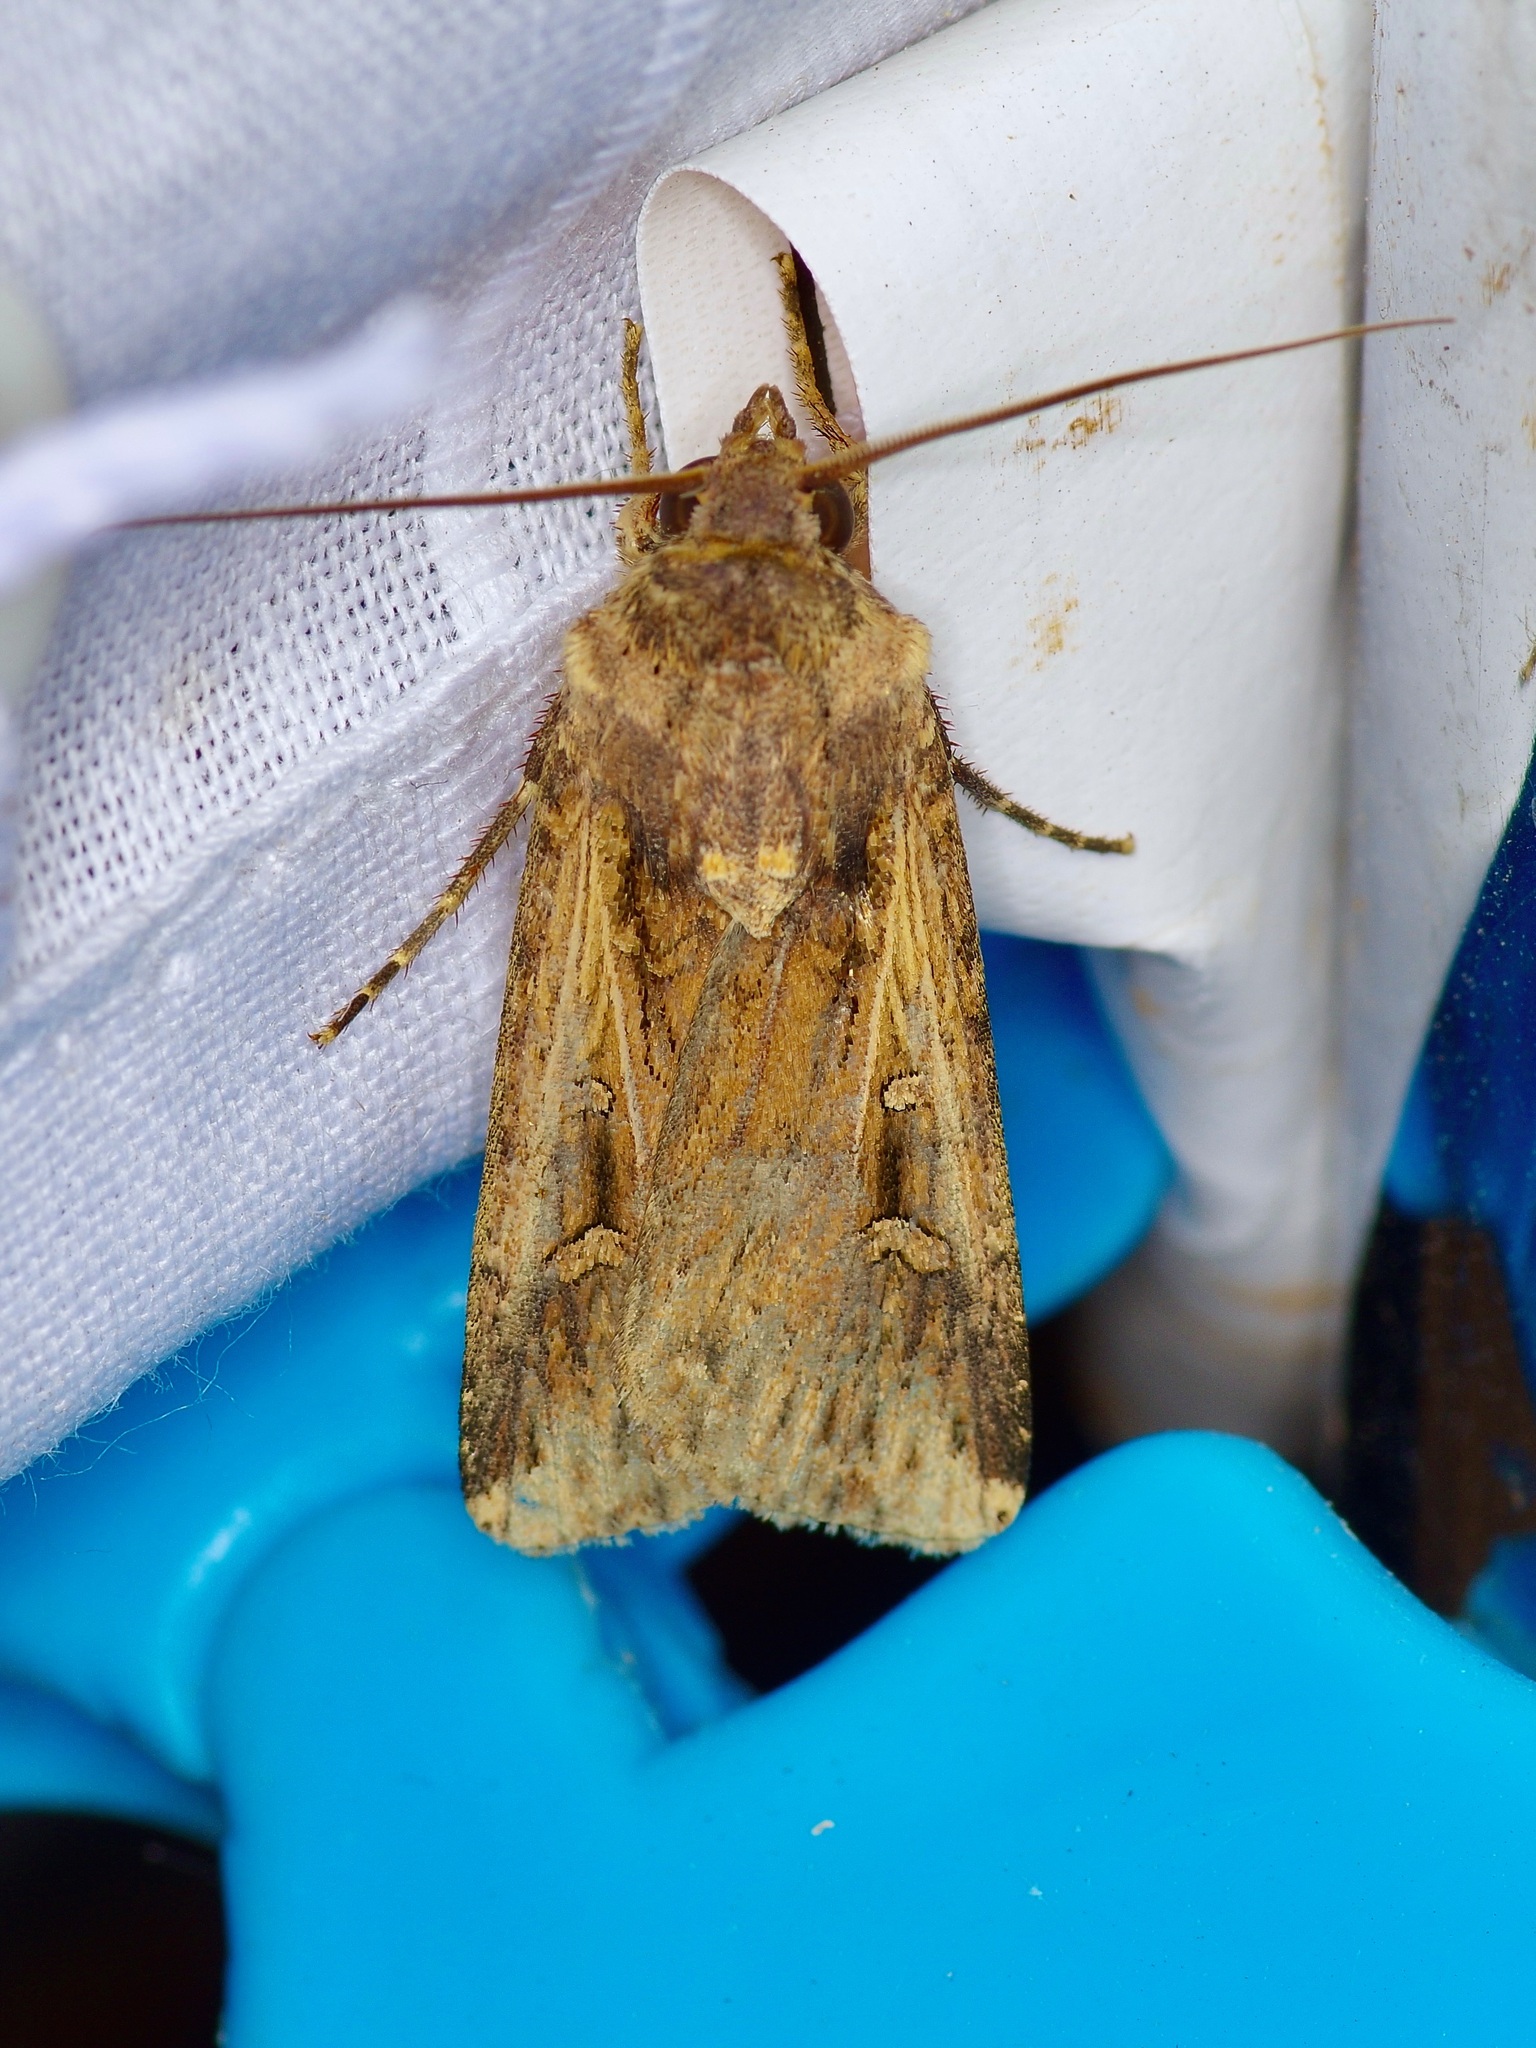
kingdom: Animalia
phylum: Arthropoda
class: Insecta
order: Lepidoptera
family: Noctuidae
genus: Feltia
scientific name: Feltia subterranea
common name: Granulate cutworm
